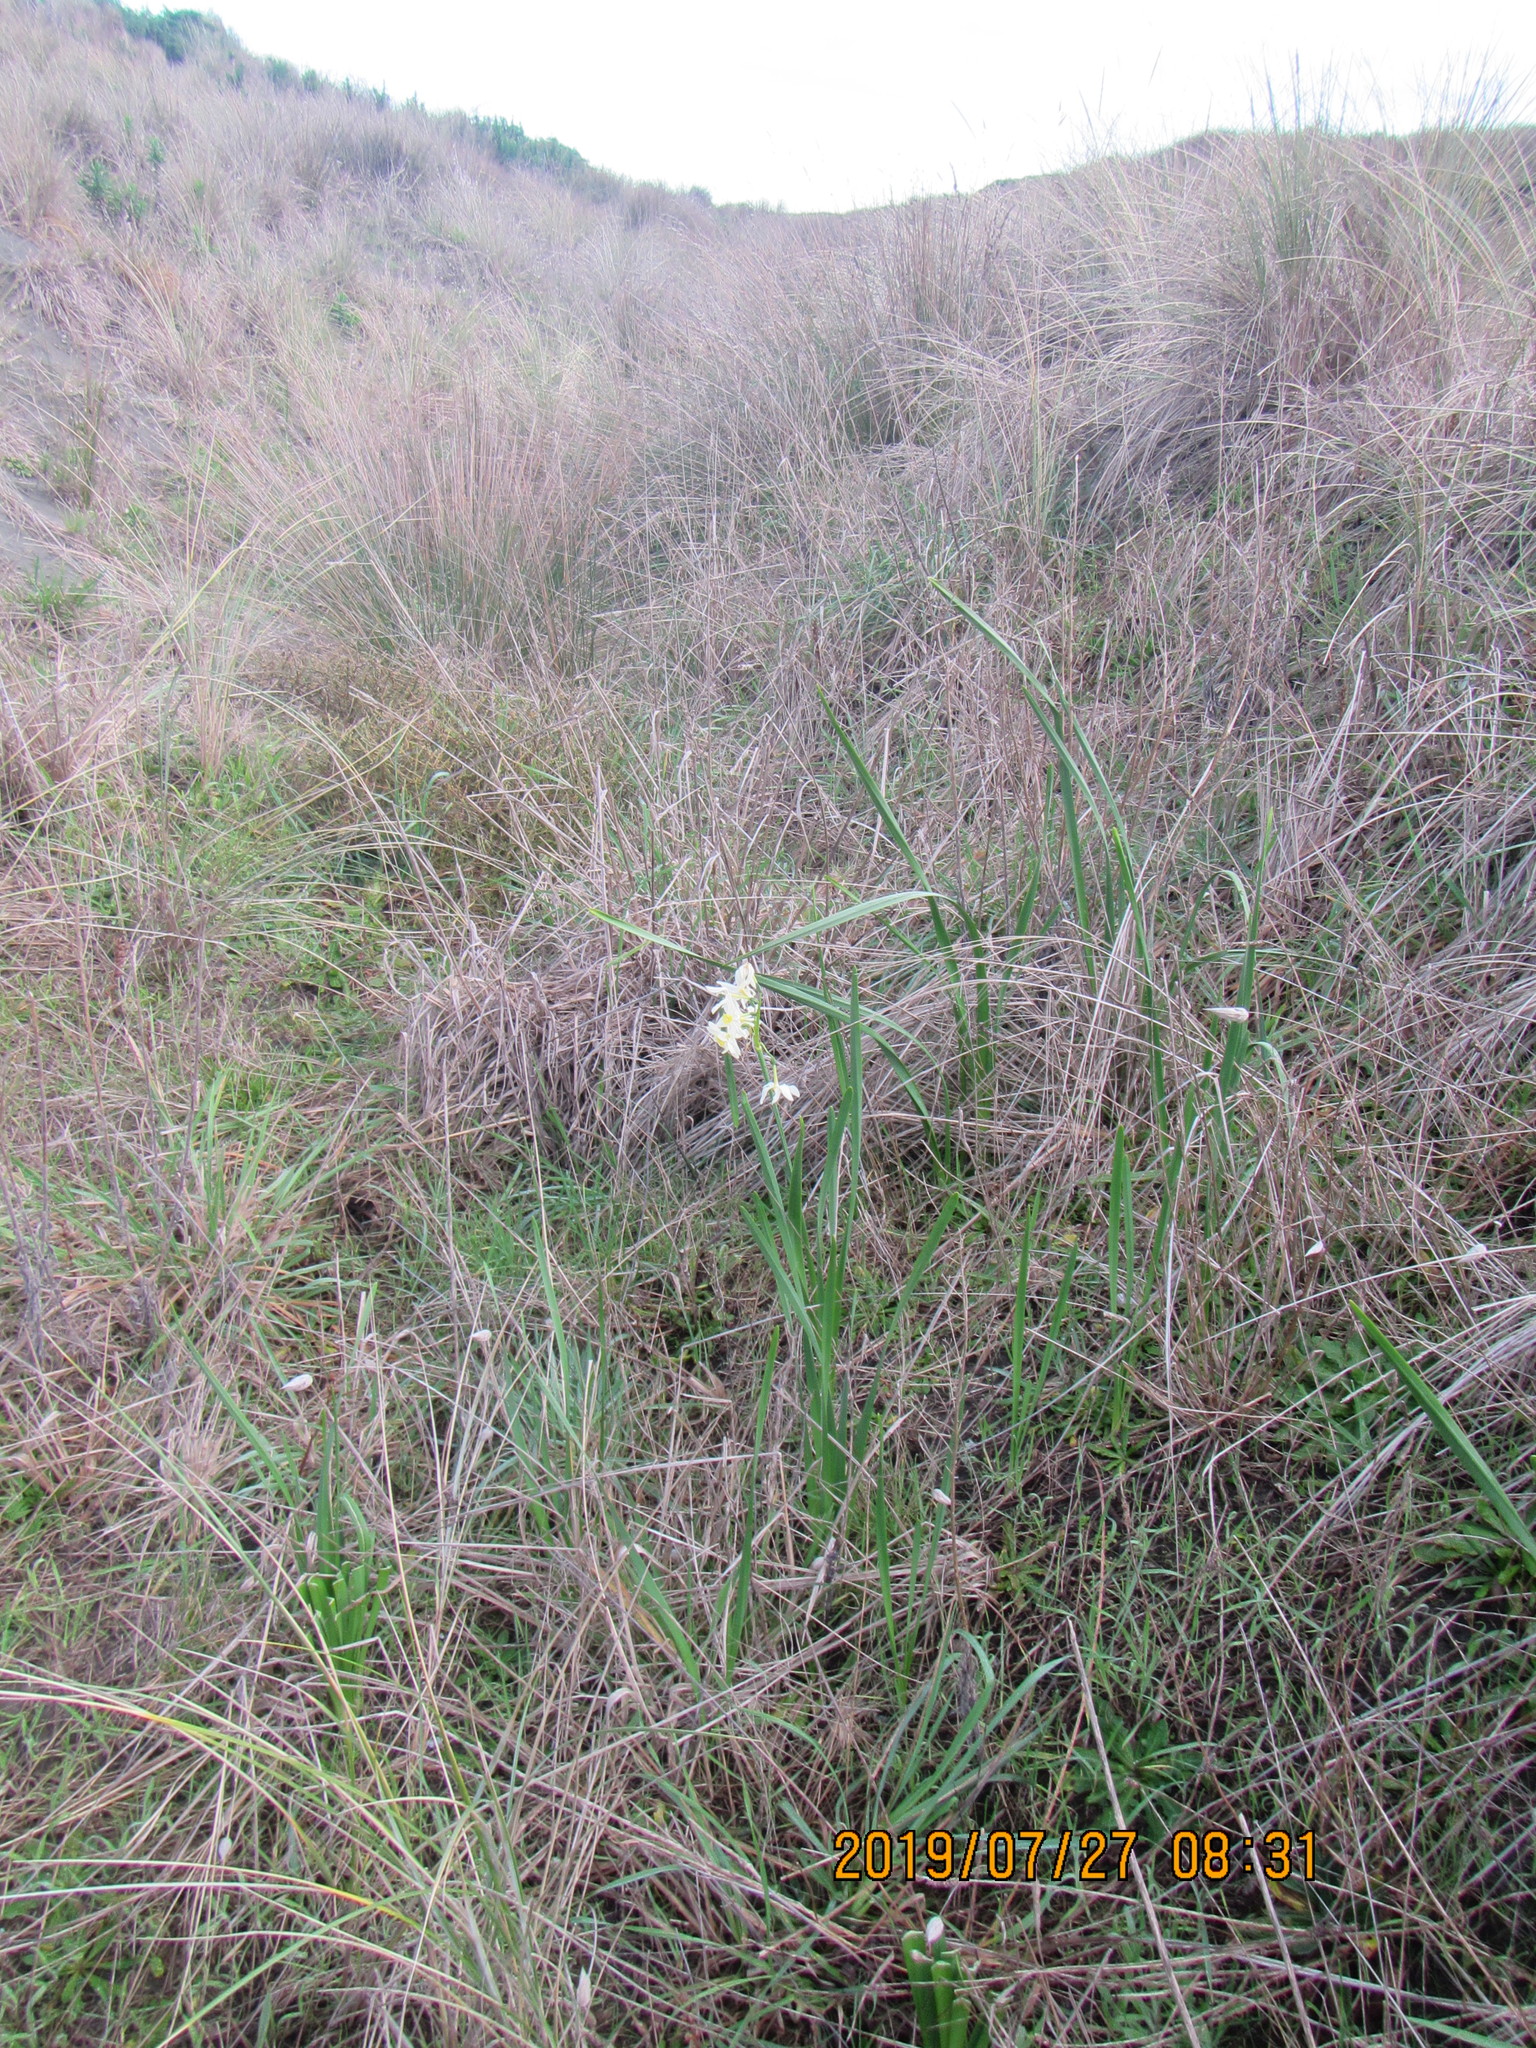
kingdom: Plantae
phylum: Tracheophyta
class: Liliopsida
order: Asparagales
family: Amaryllidaceae
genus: Narcissus
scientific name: Narcissus tazetta
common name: Bunch-flowered daffodil
